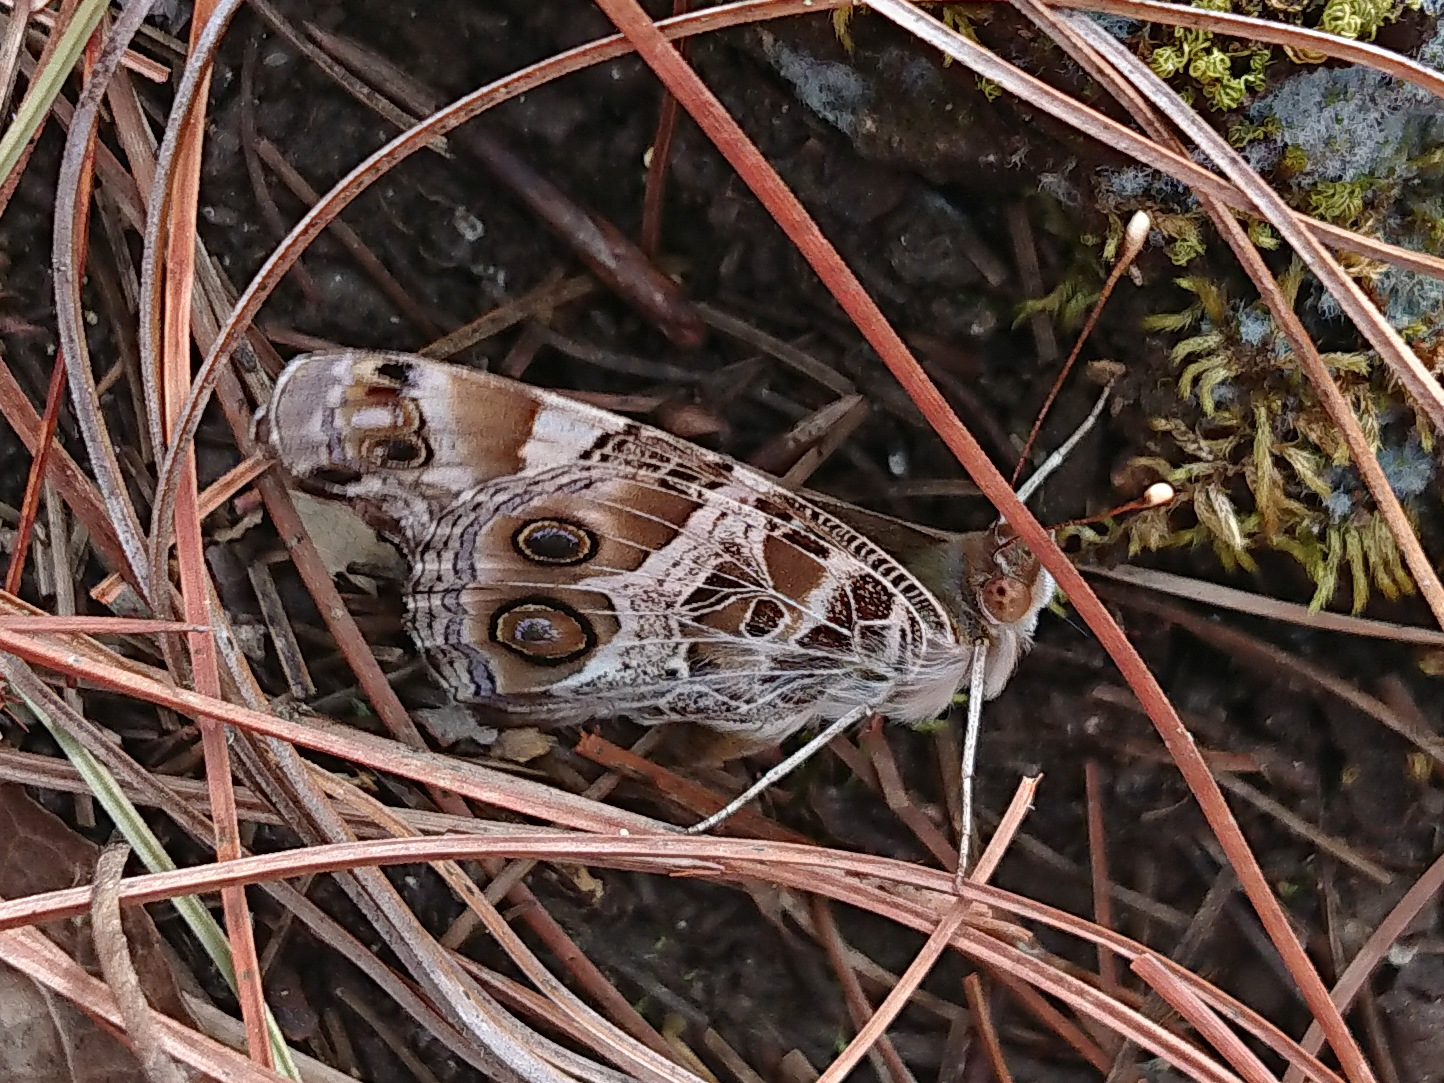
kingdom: Animalia
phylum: Arthropoda
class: Insecta
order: Lepidoptera
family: Nymphalidae
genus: Vanessa
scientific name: Vanessa virginiensis
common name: American lady
